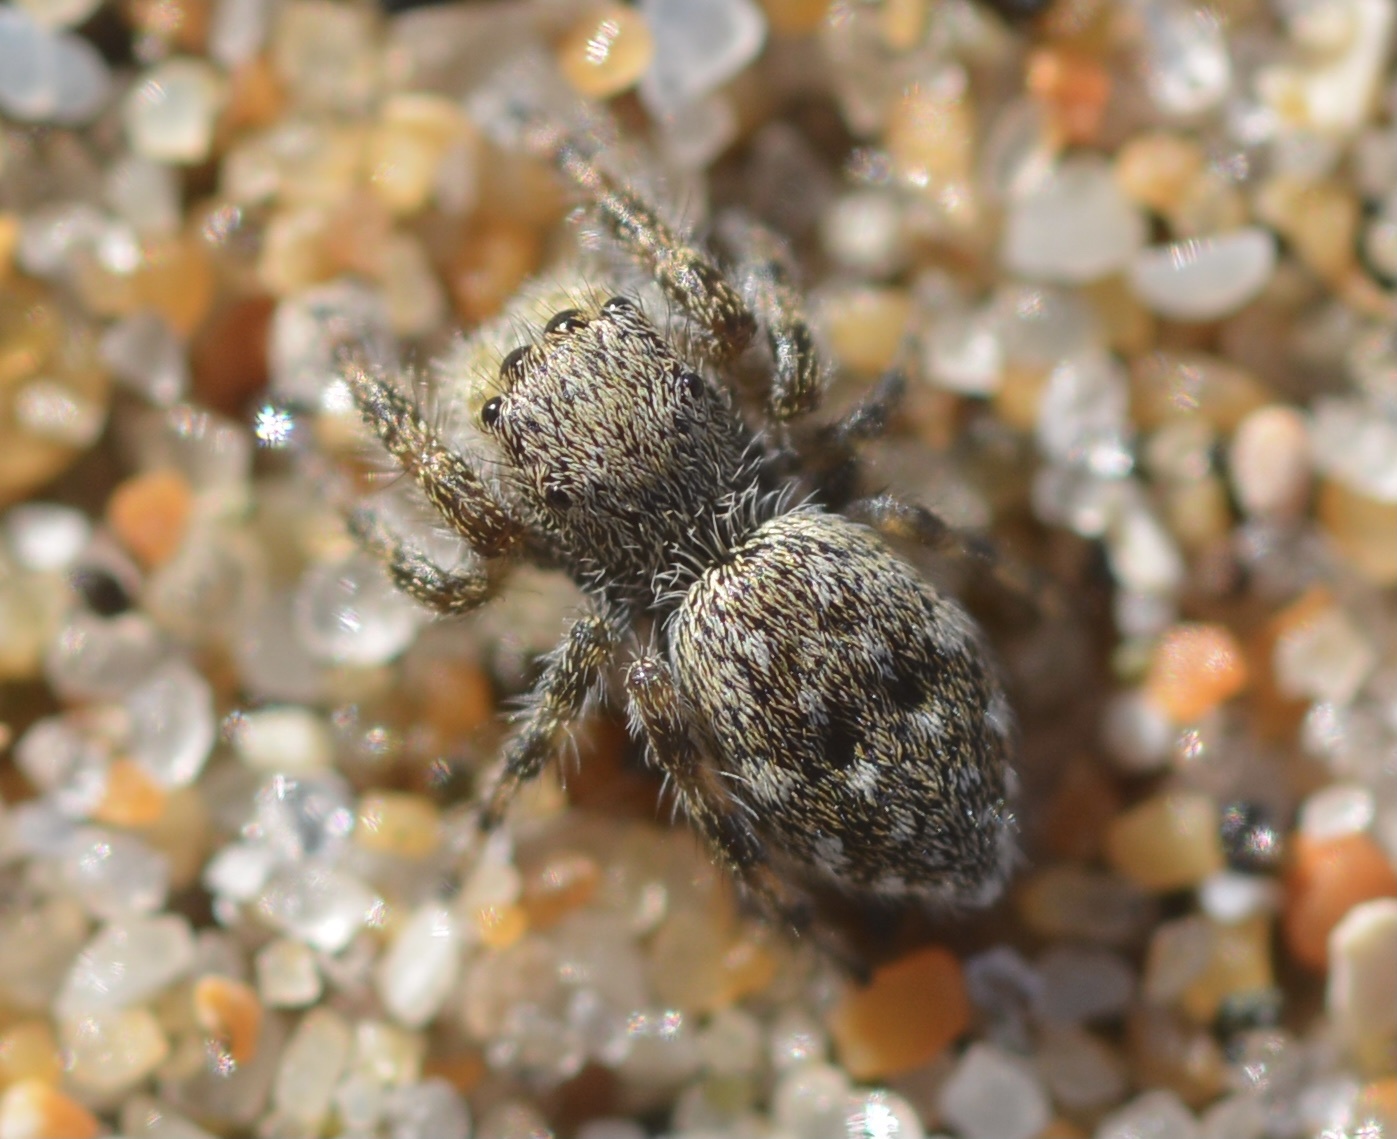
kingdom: Animalia
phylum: Arthropoda
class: Arachnida
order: Araneae
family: Salticidae
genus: Terralonus
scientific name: Terralonus californicus
